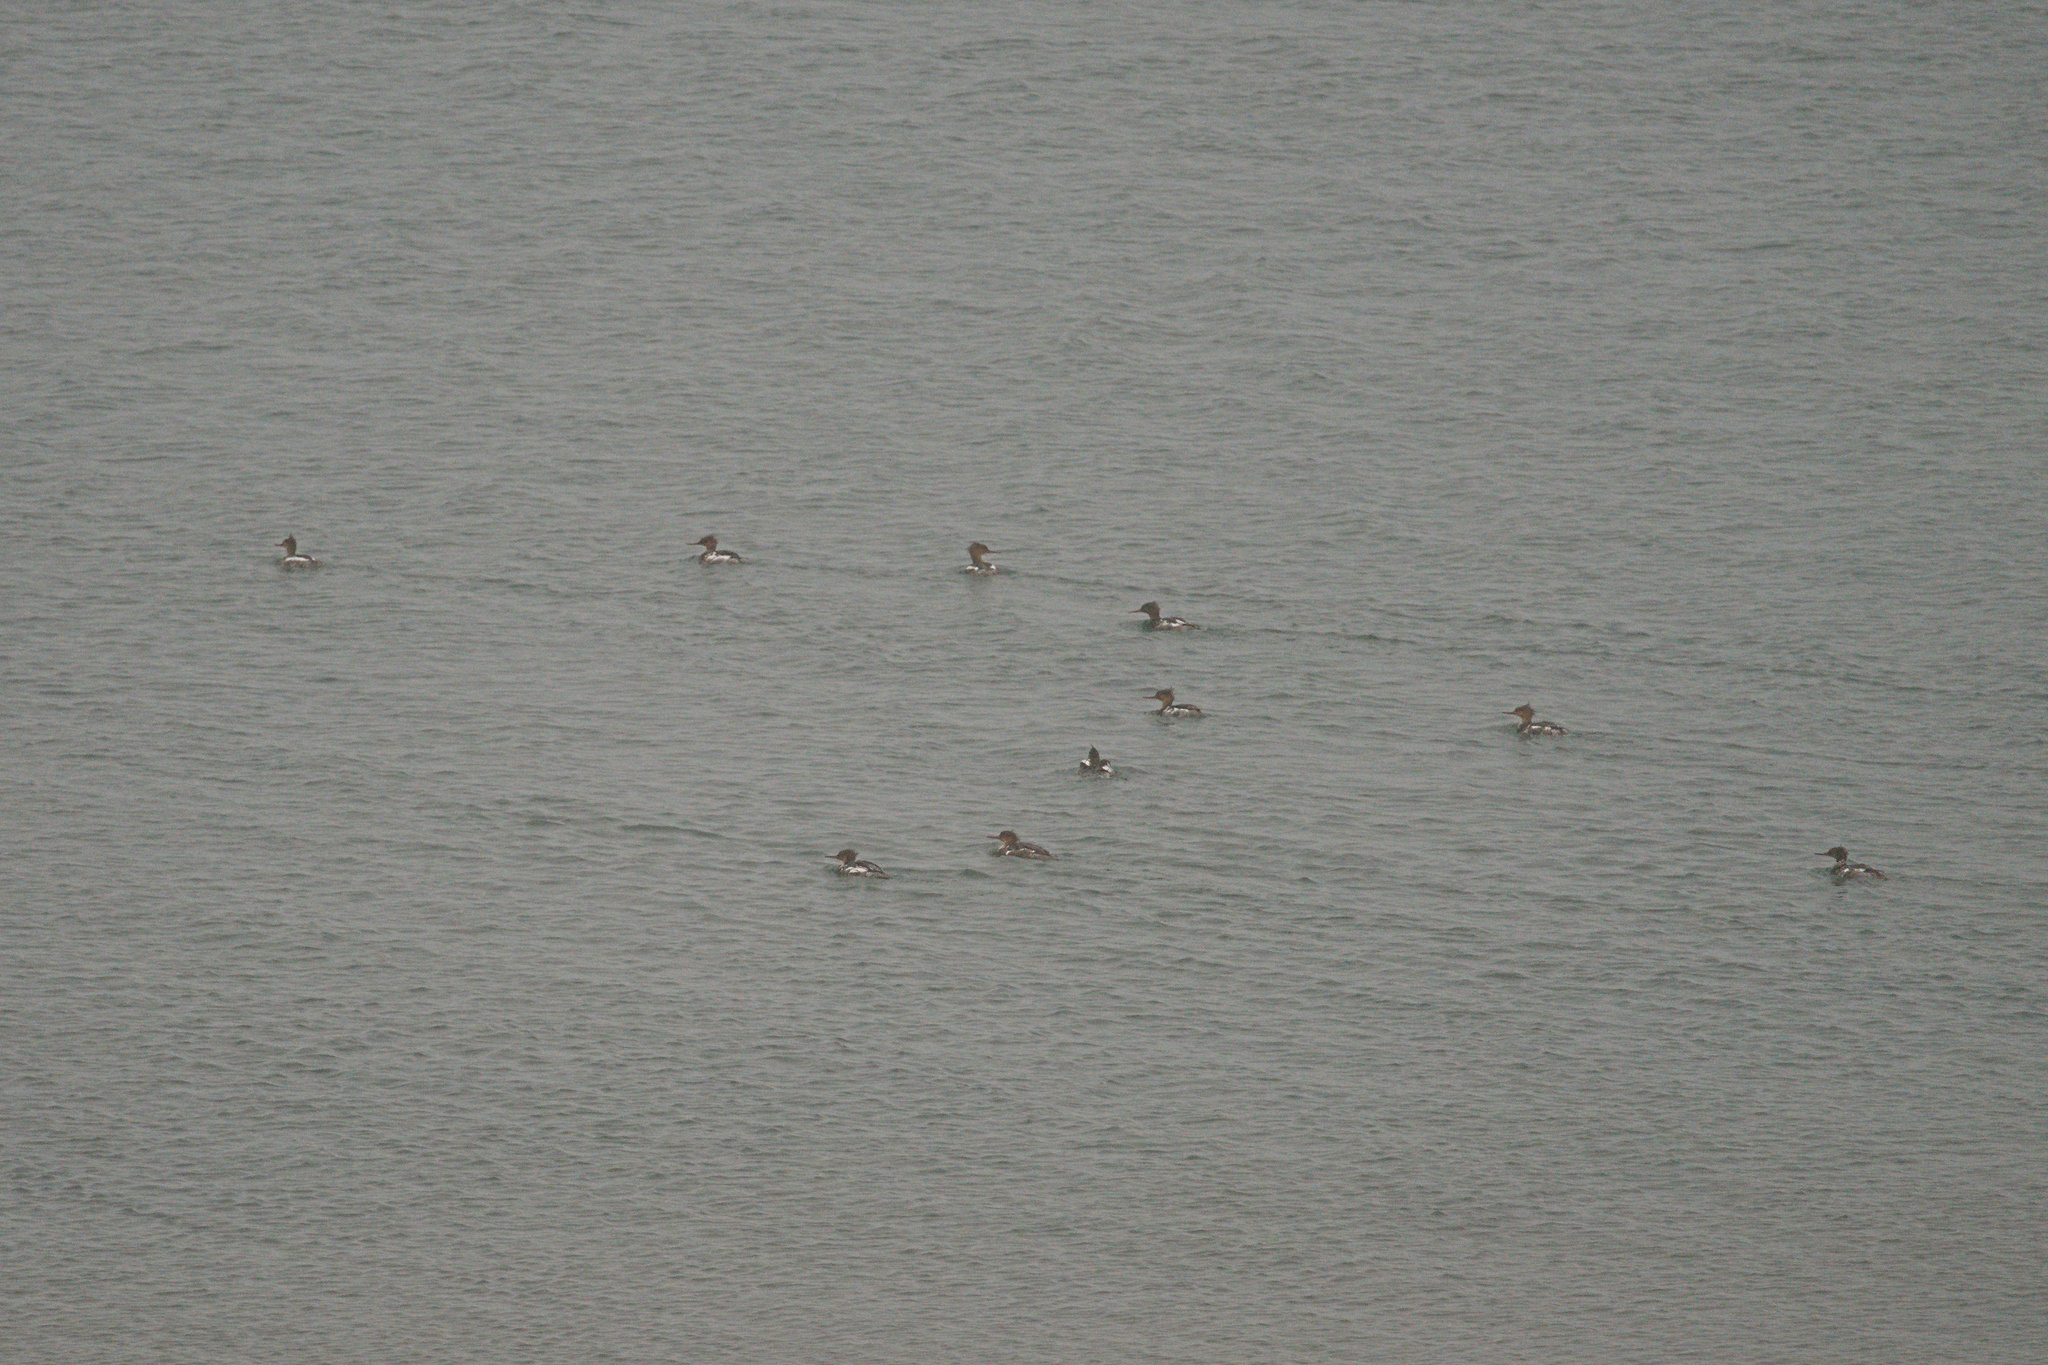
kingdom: Animalia
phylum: Chordata
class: Aves
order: Anseriformes
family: Anatidae
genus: Mergus
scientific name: Mergus serrator
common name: Red-breasted merganser
